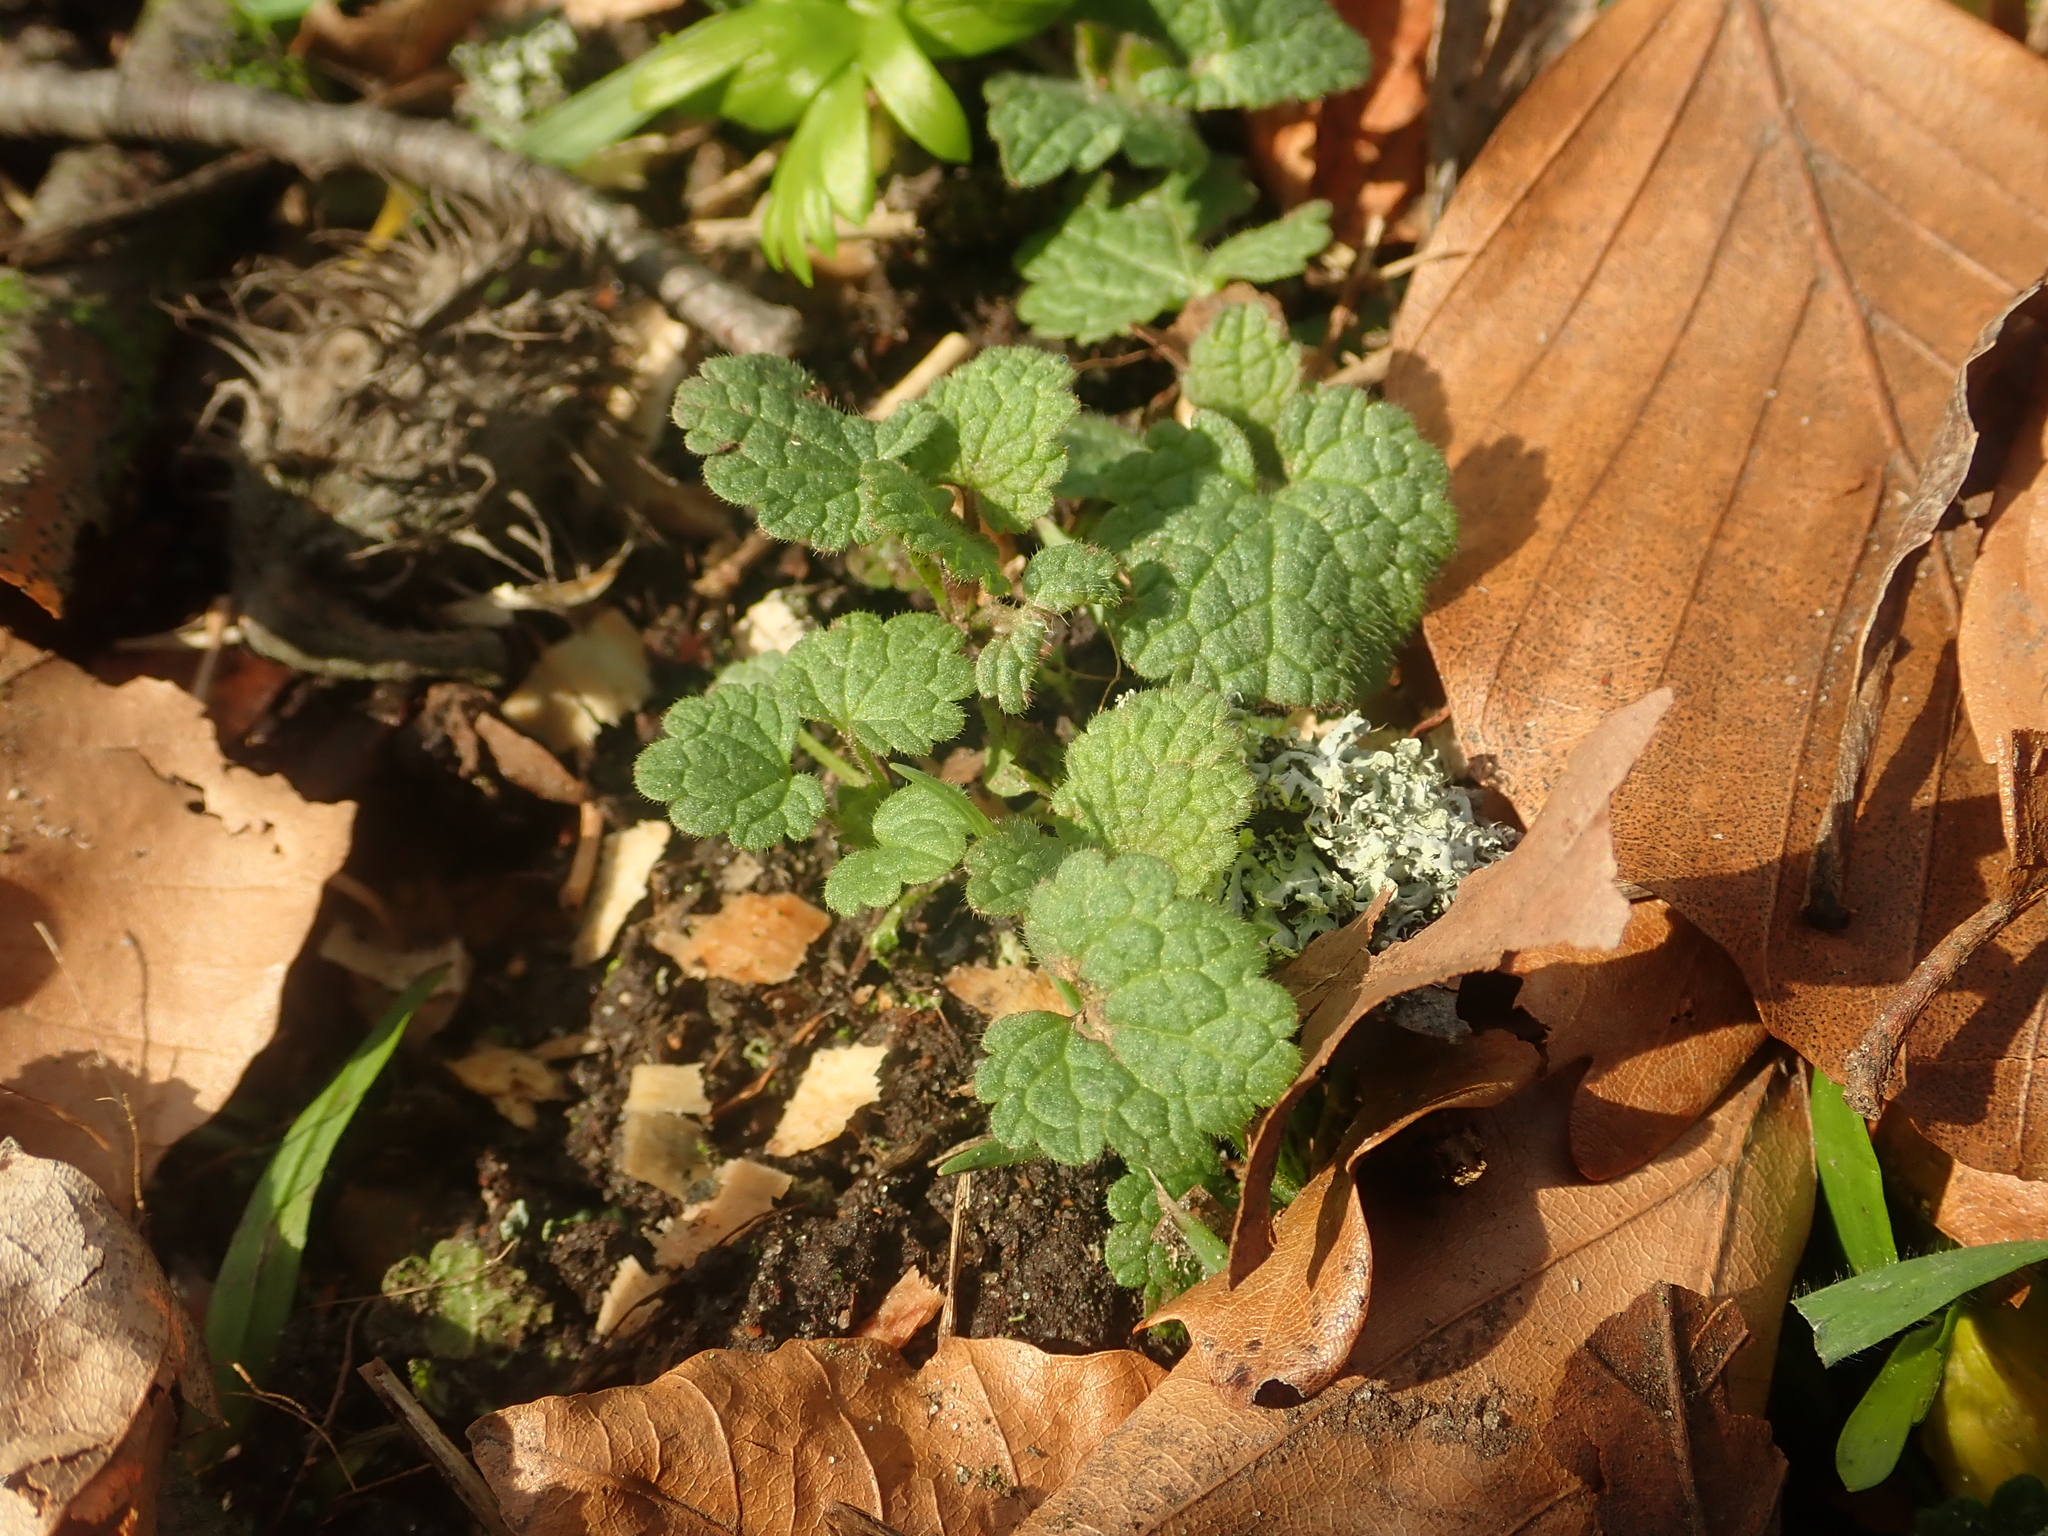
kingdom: Plantae
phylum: Tracheophyta
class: Magnoliopsida
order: Lamiales
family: Lamiaceae
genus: Lamium
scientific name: Lamium purpureum
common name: Red dead-nettle
